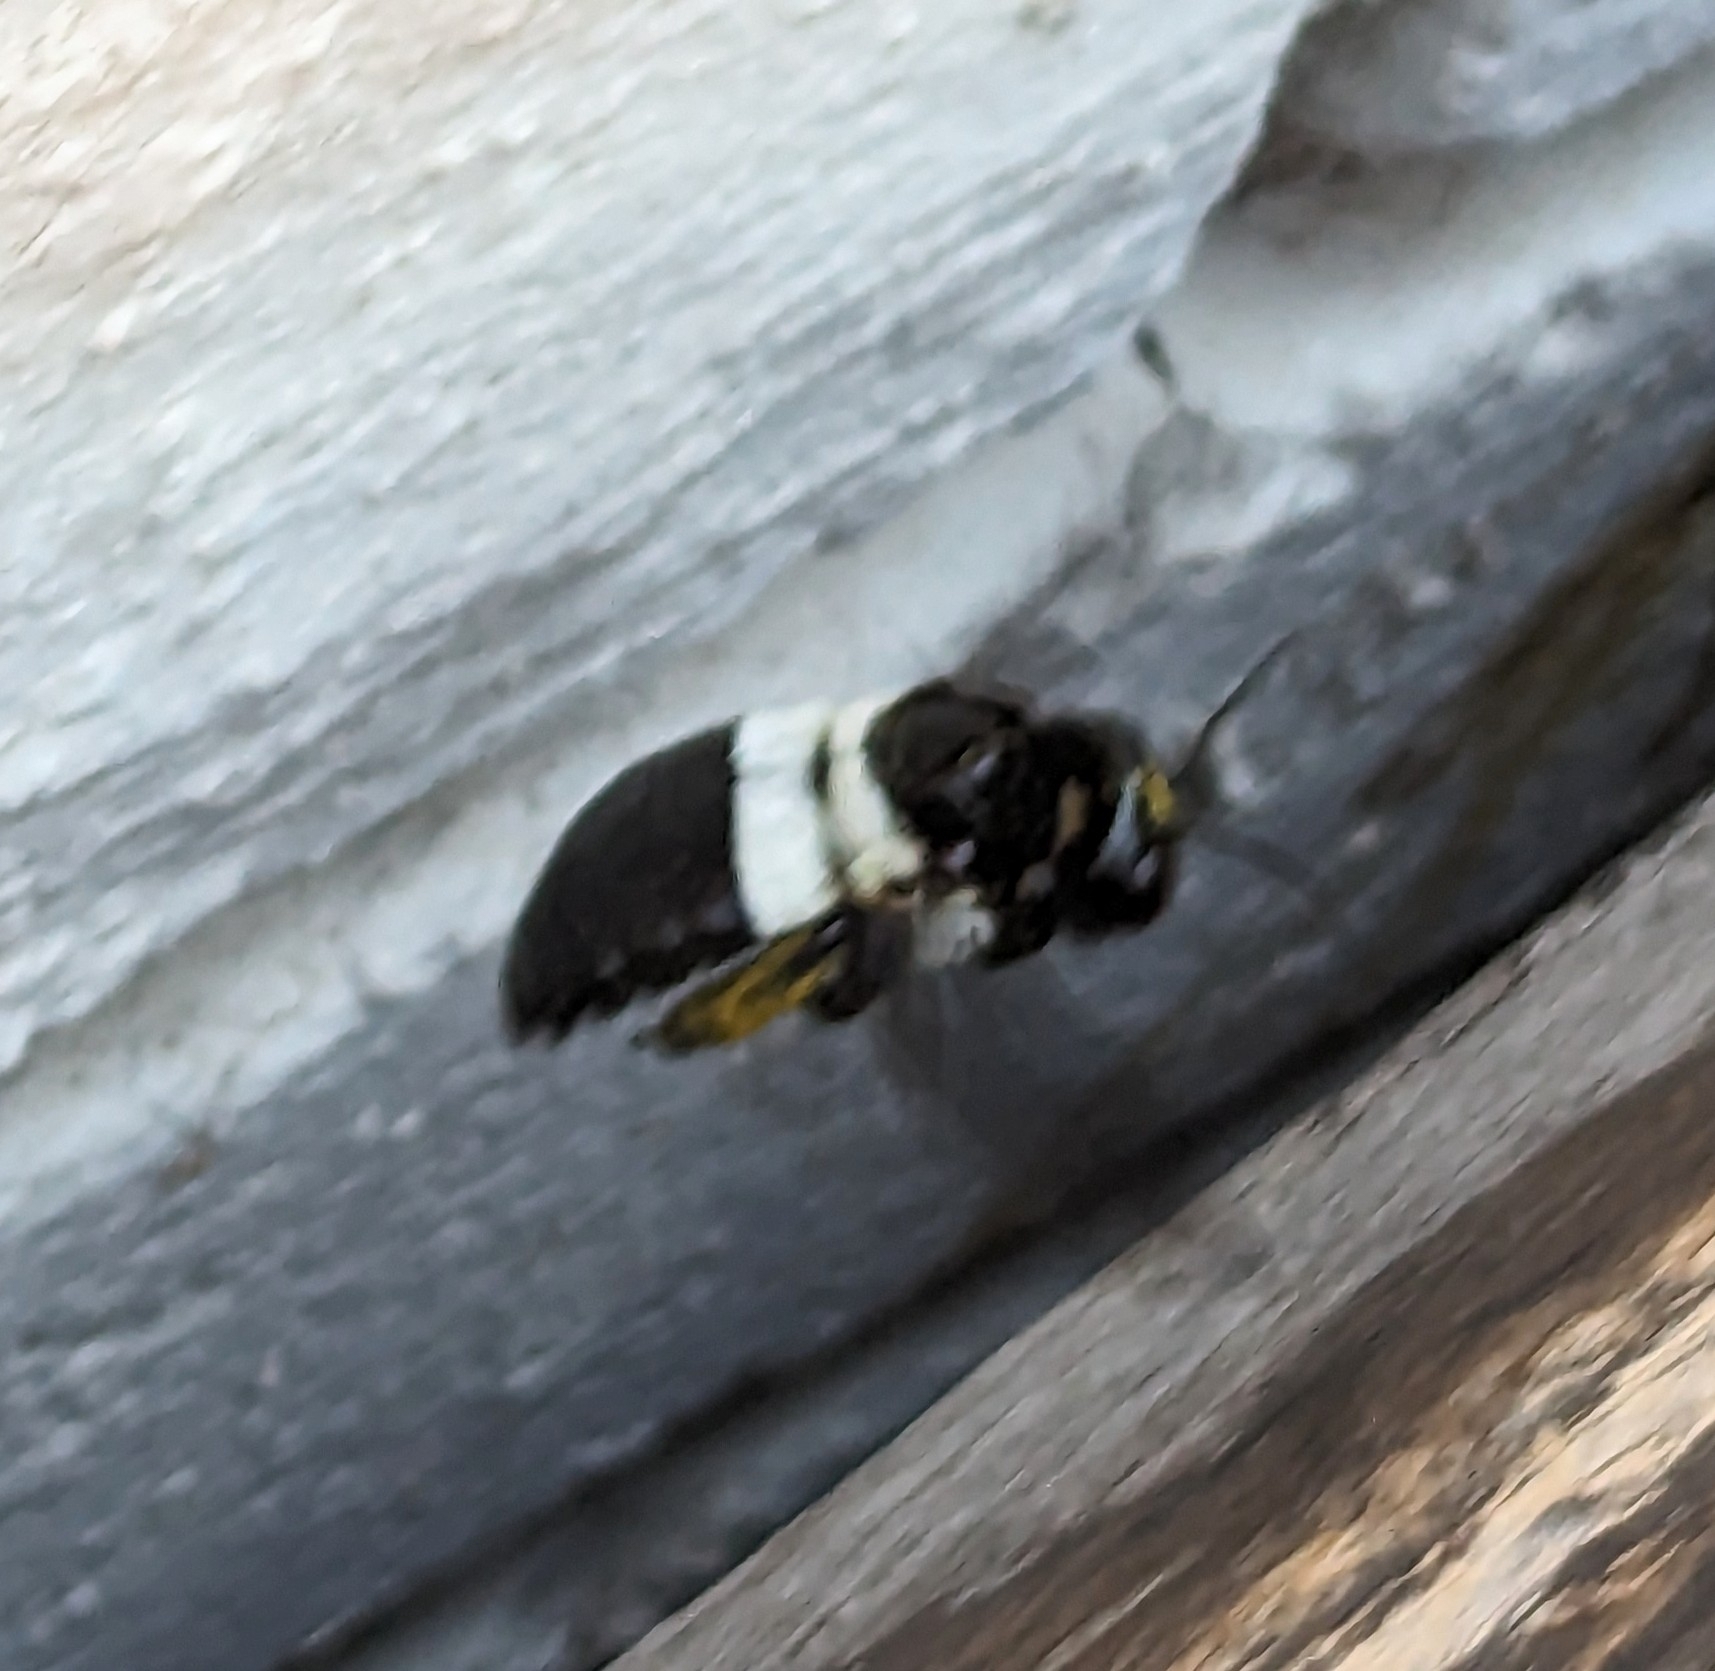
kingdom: Animalia
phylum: Arthropoda
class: Insecta
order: Hymenoptera
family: Apidae
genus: Xylocopa
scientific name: Xylocopa inconstans
